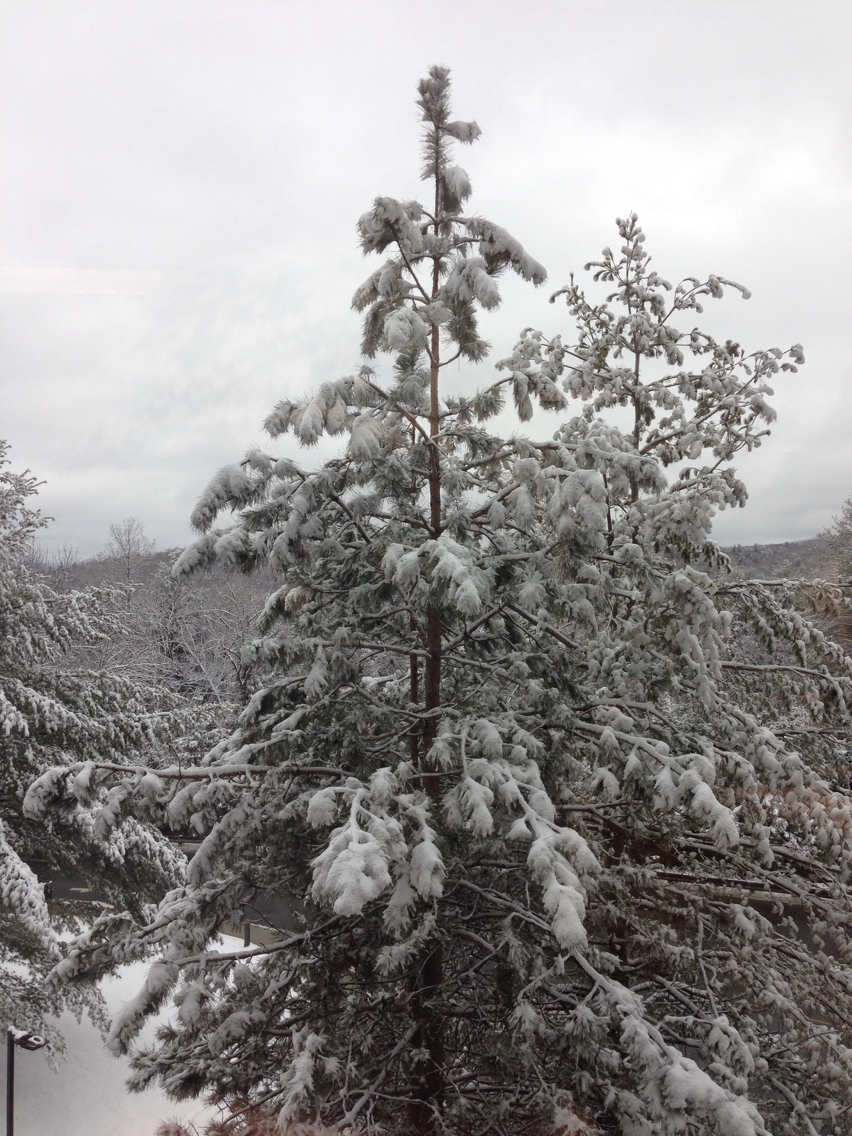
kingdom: Plantae
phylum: Tracheophyta
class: Pinopsida
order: Pinales
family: Pinaceae
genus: Pinus
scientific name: Pinus strobus
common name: Weymouth pine
